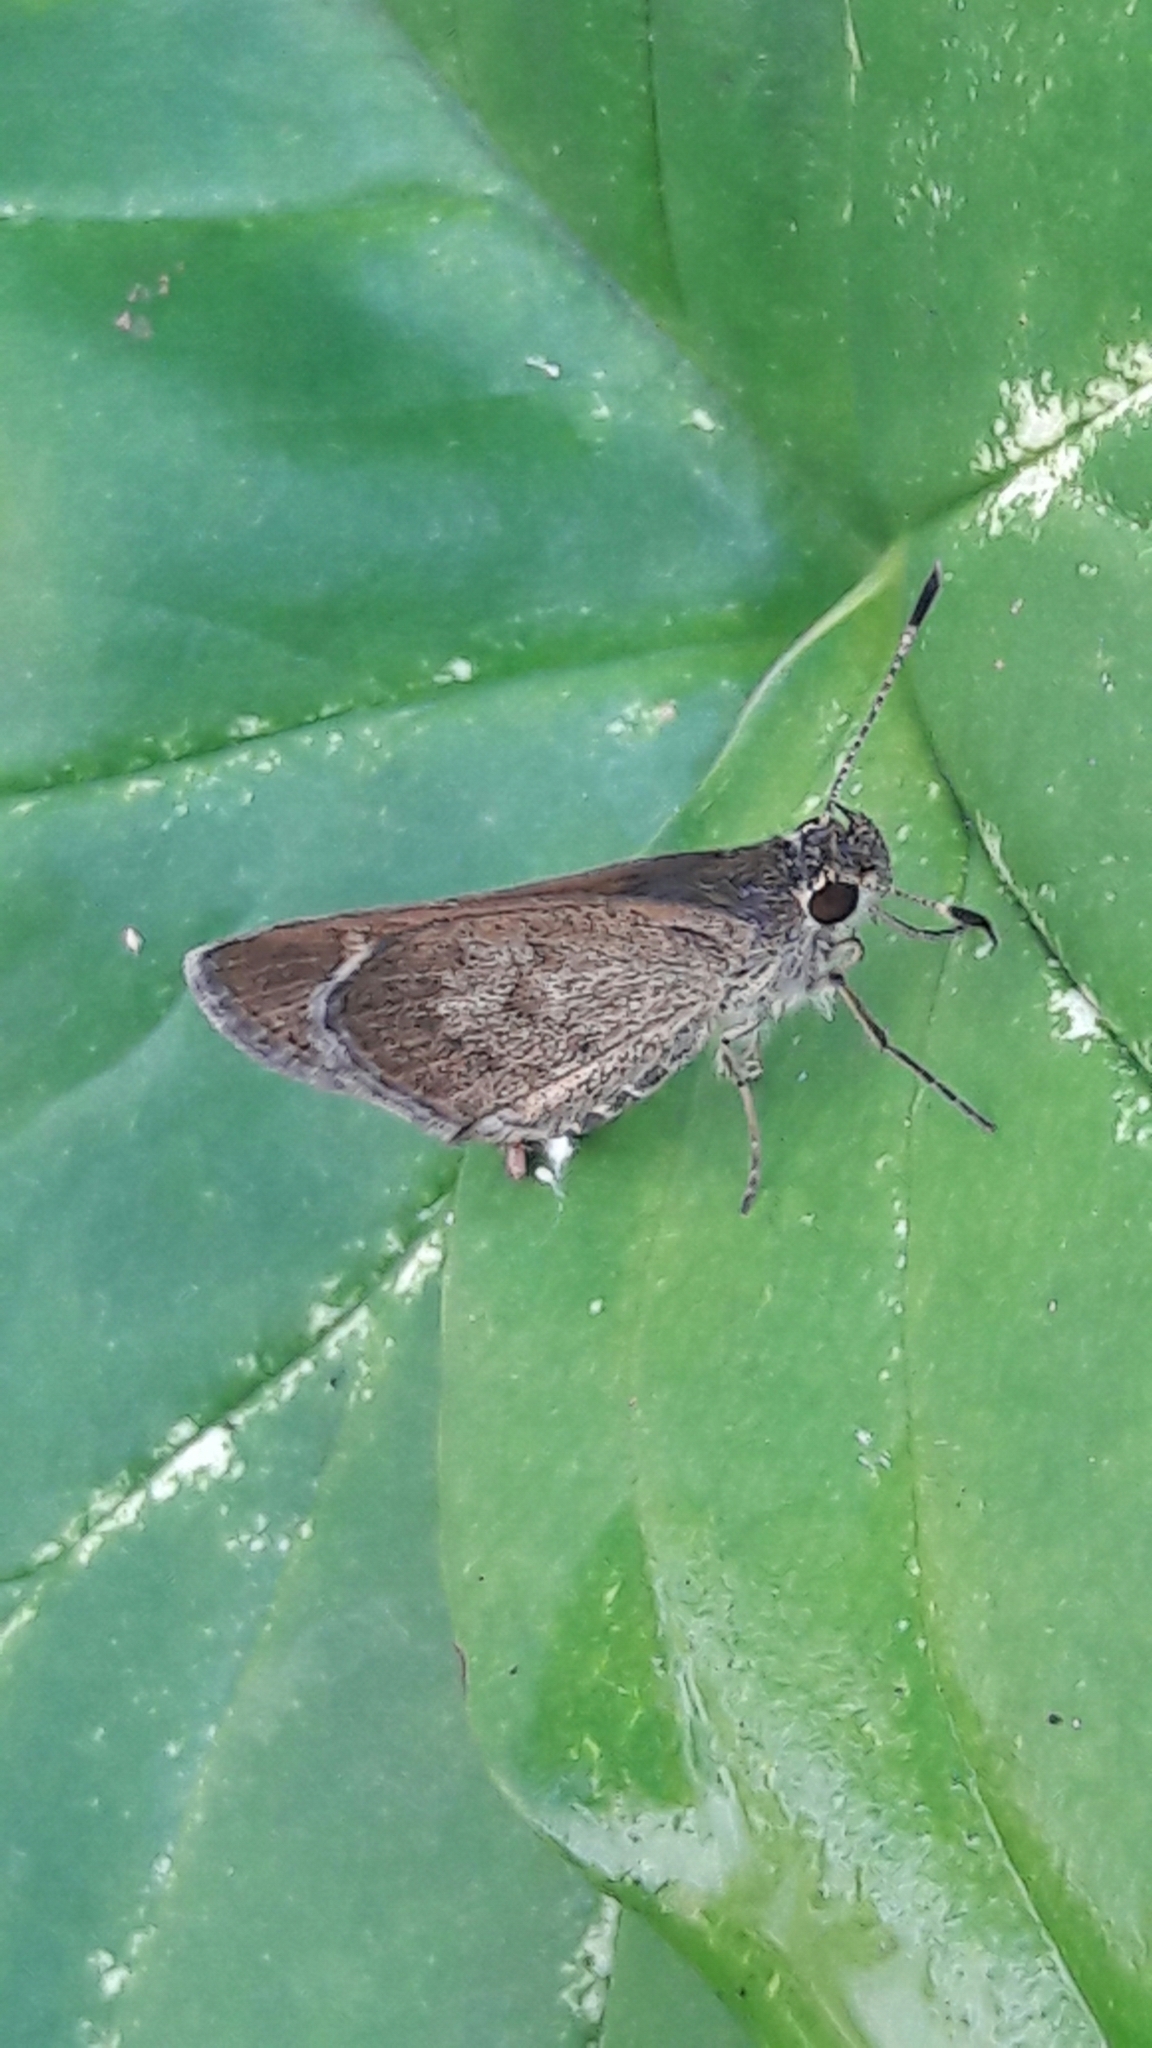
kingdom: Animalia
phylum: Arthropoda
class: Insecta
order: Lepidoptera
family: Hesperiidae
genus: Callimormus
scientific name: Callimormus saturnus
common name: Saturnus skipper
